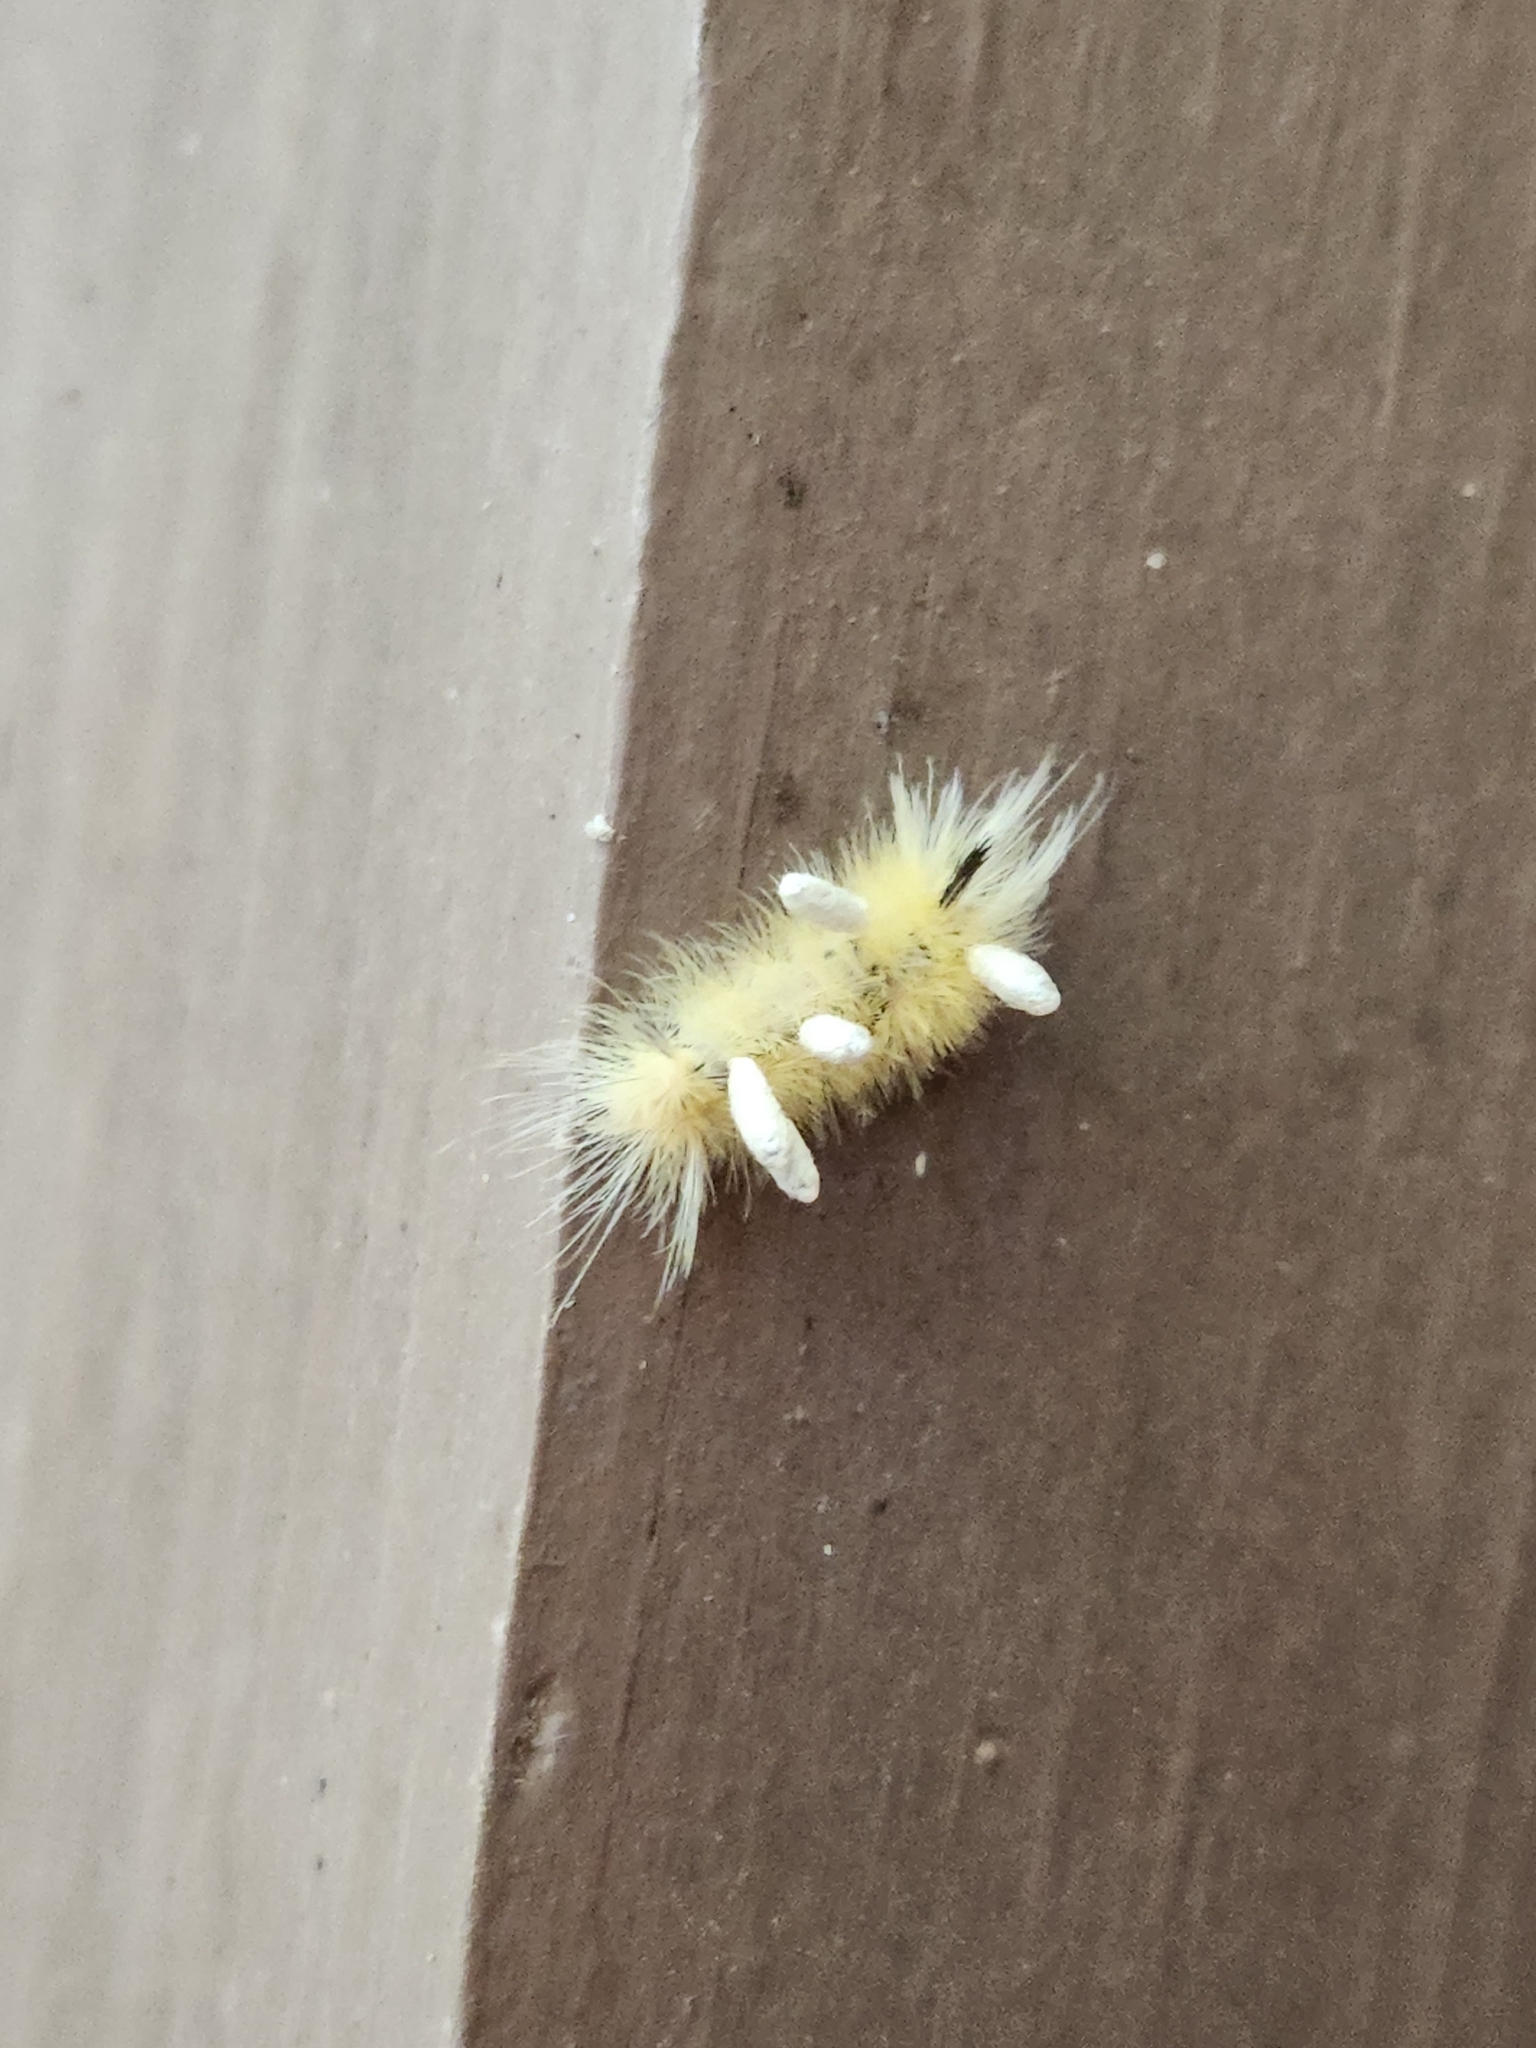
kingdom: Animalia
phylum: Arthropoda
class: Insecta
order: Lepidoptera
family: Erebidae
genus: Halysidota
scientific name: Halysidota tessellaris
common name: Banded tussock moth
